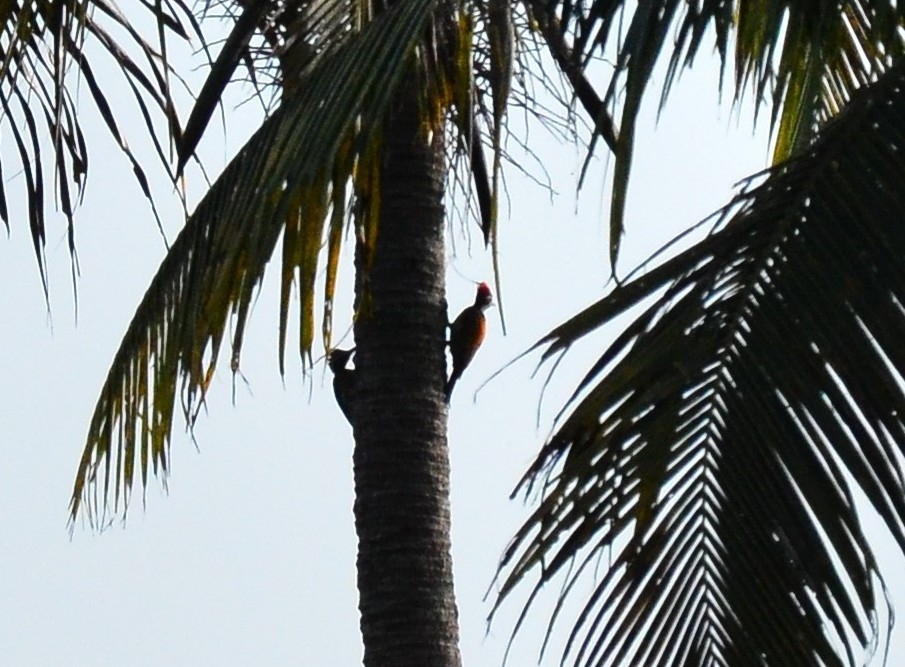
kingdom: Animalia
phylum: Chordata
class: Aves
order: Piciformes
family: Picidae
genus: Dinopium
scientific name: Dinopium benghalense
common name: Black-rumped flameback
